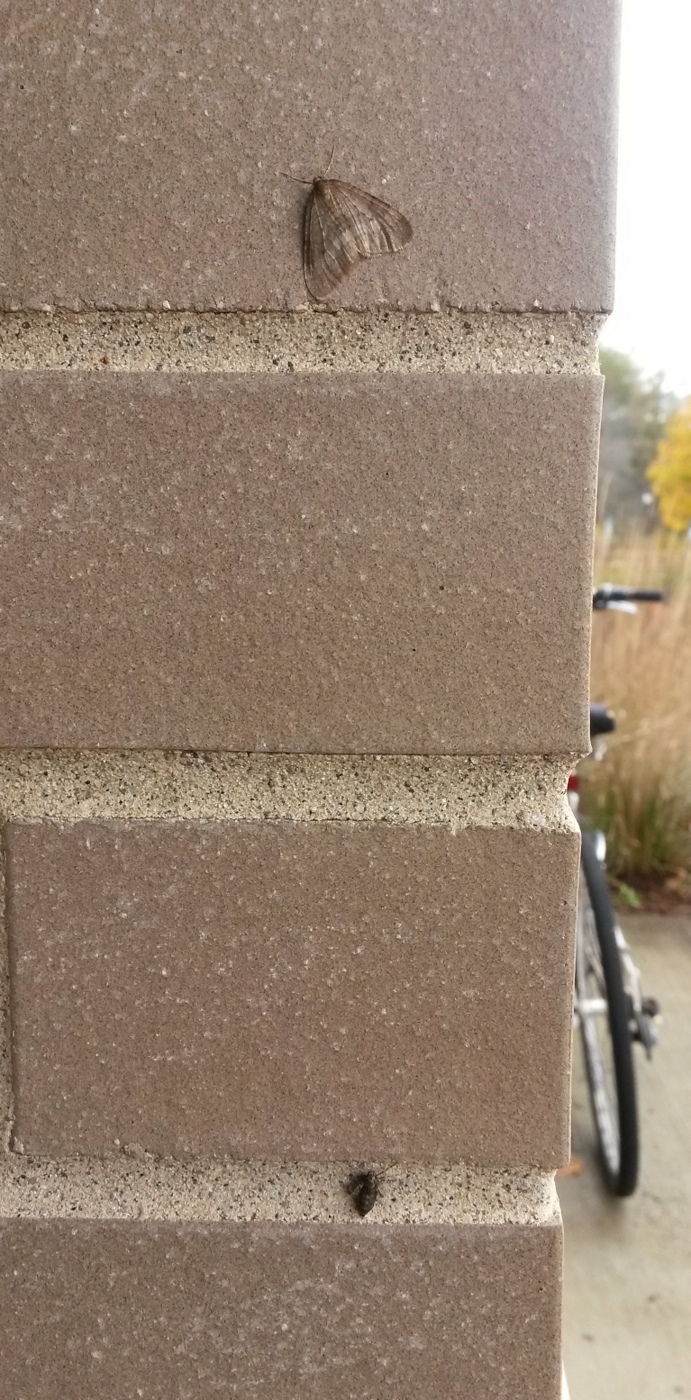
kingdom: Animalia
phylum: Arthropoda
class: Insecta
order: Lepidoptera
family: Geometridae
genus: Operophtera
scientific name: Operophtera brumata
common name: Winter moth
